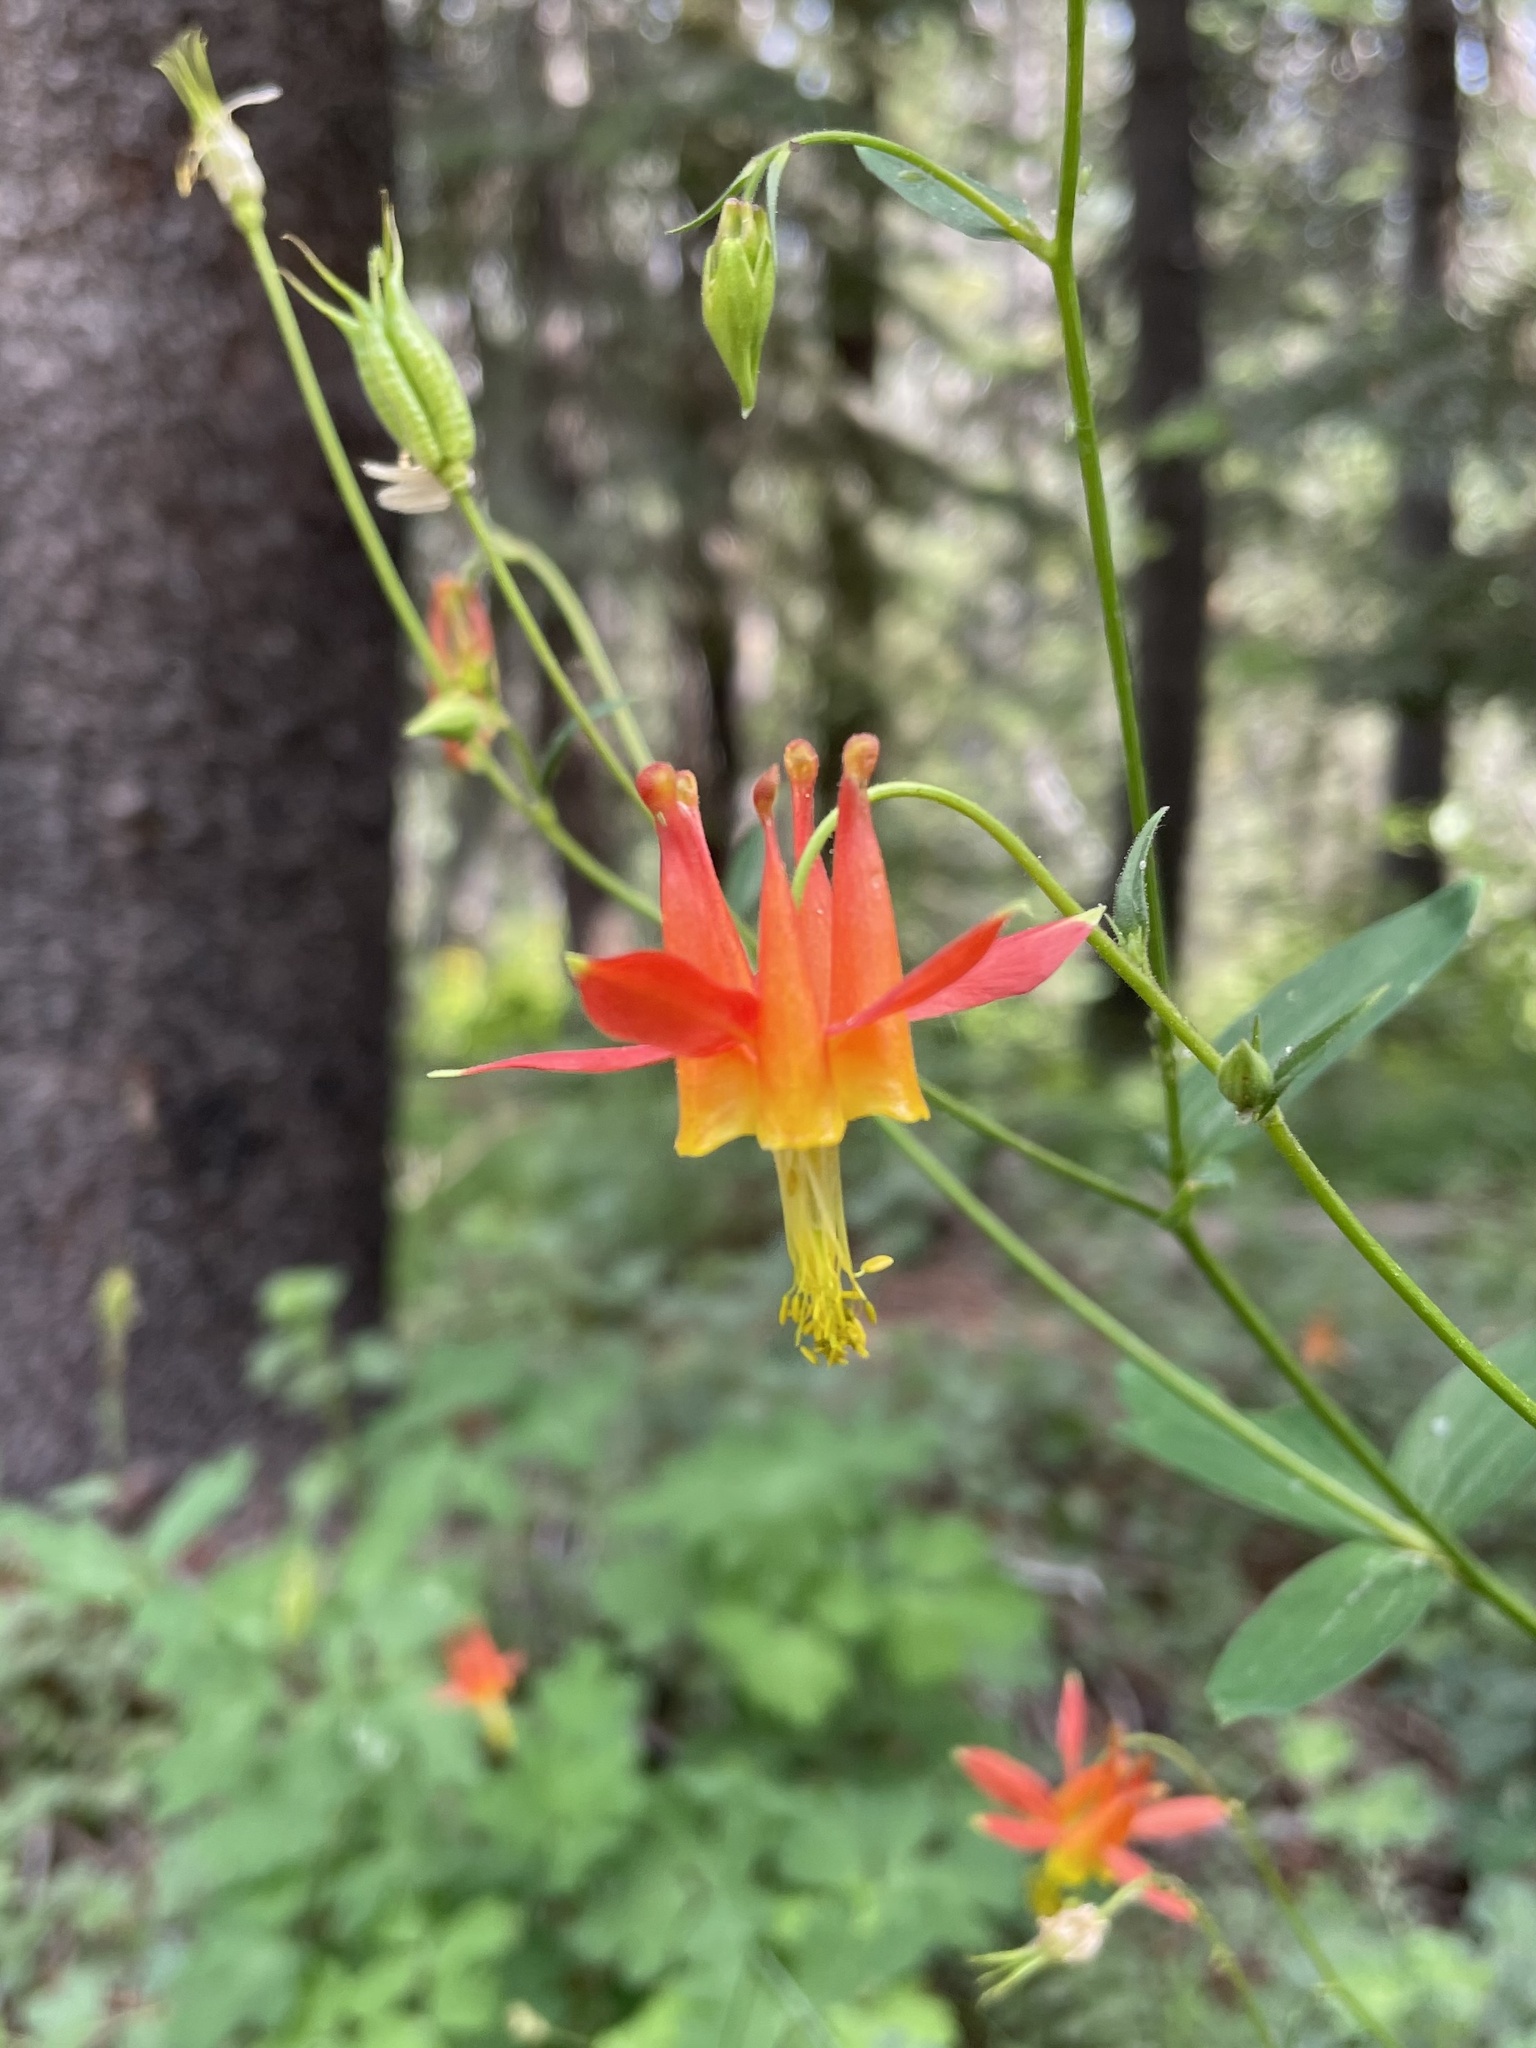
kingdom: Plantae
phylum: Tracheophyta
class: Magnoliopsida
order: Ranunculales
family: Ranunculaceae
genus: Aquilegia
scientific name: Aquilegia formosa
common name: Sitka columbine
